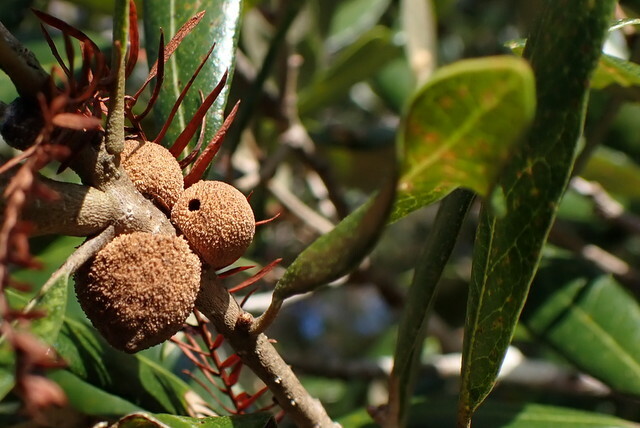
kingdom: Animalia
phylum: Arthropoda
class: Insecta
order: Hymenoptera
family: Cynipidae
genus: Disholcaspis
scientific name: Disholcaspis
